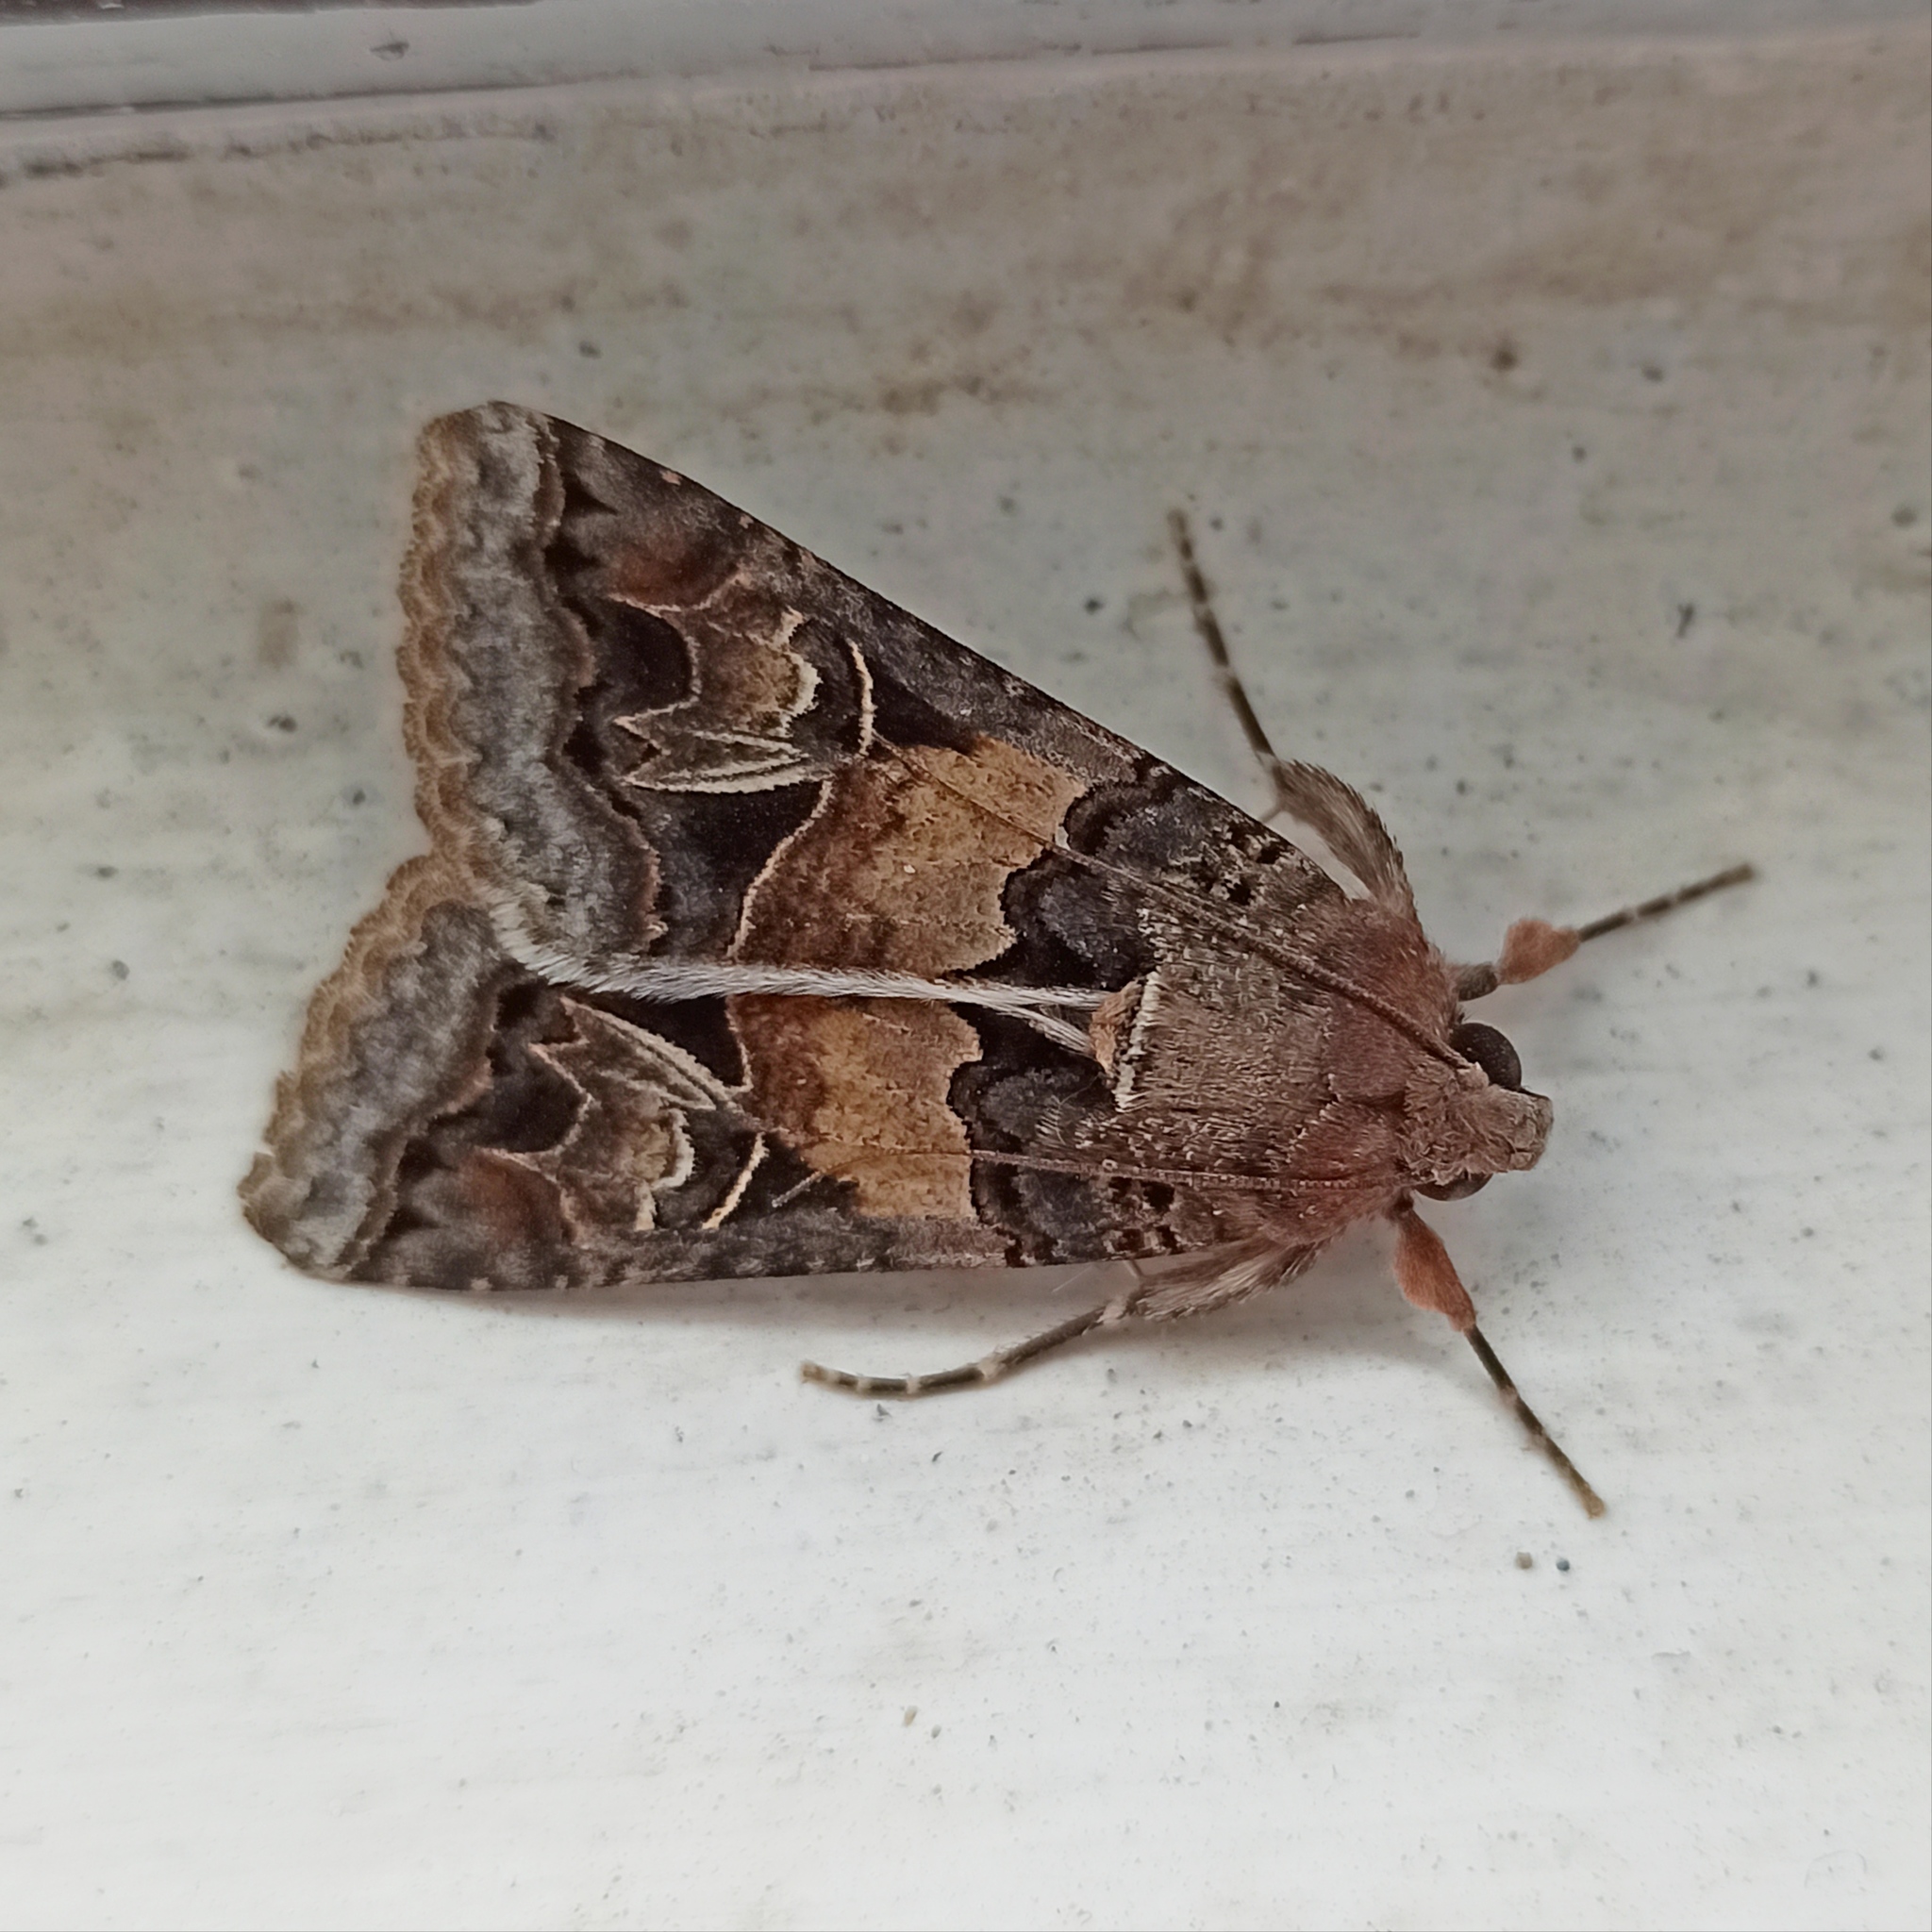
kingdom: Animalia
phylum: Arthropoda
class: Insecta
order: Lepidoptera
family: Erebidae
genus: Melipotis
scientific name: Melipotis novanda
